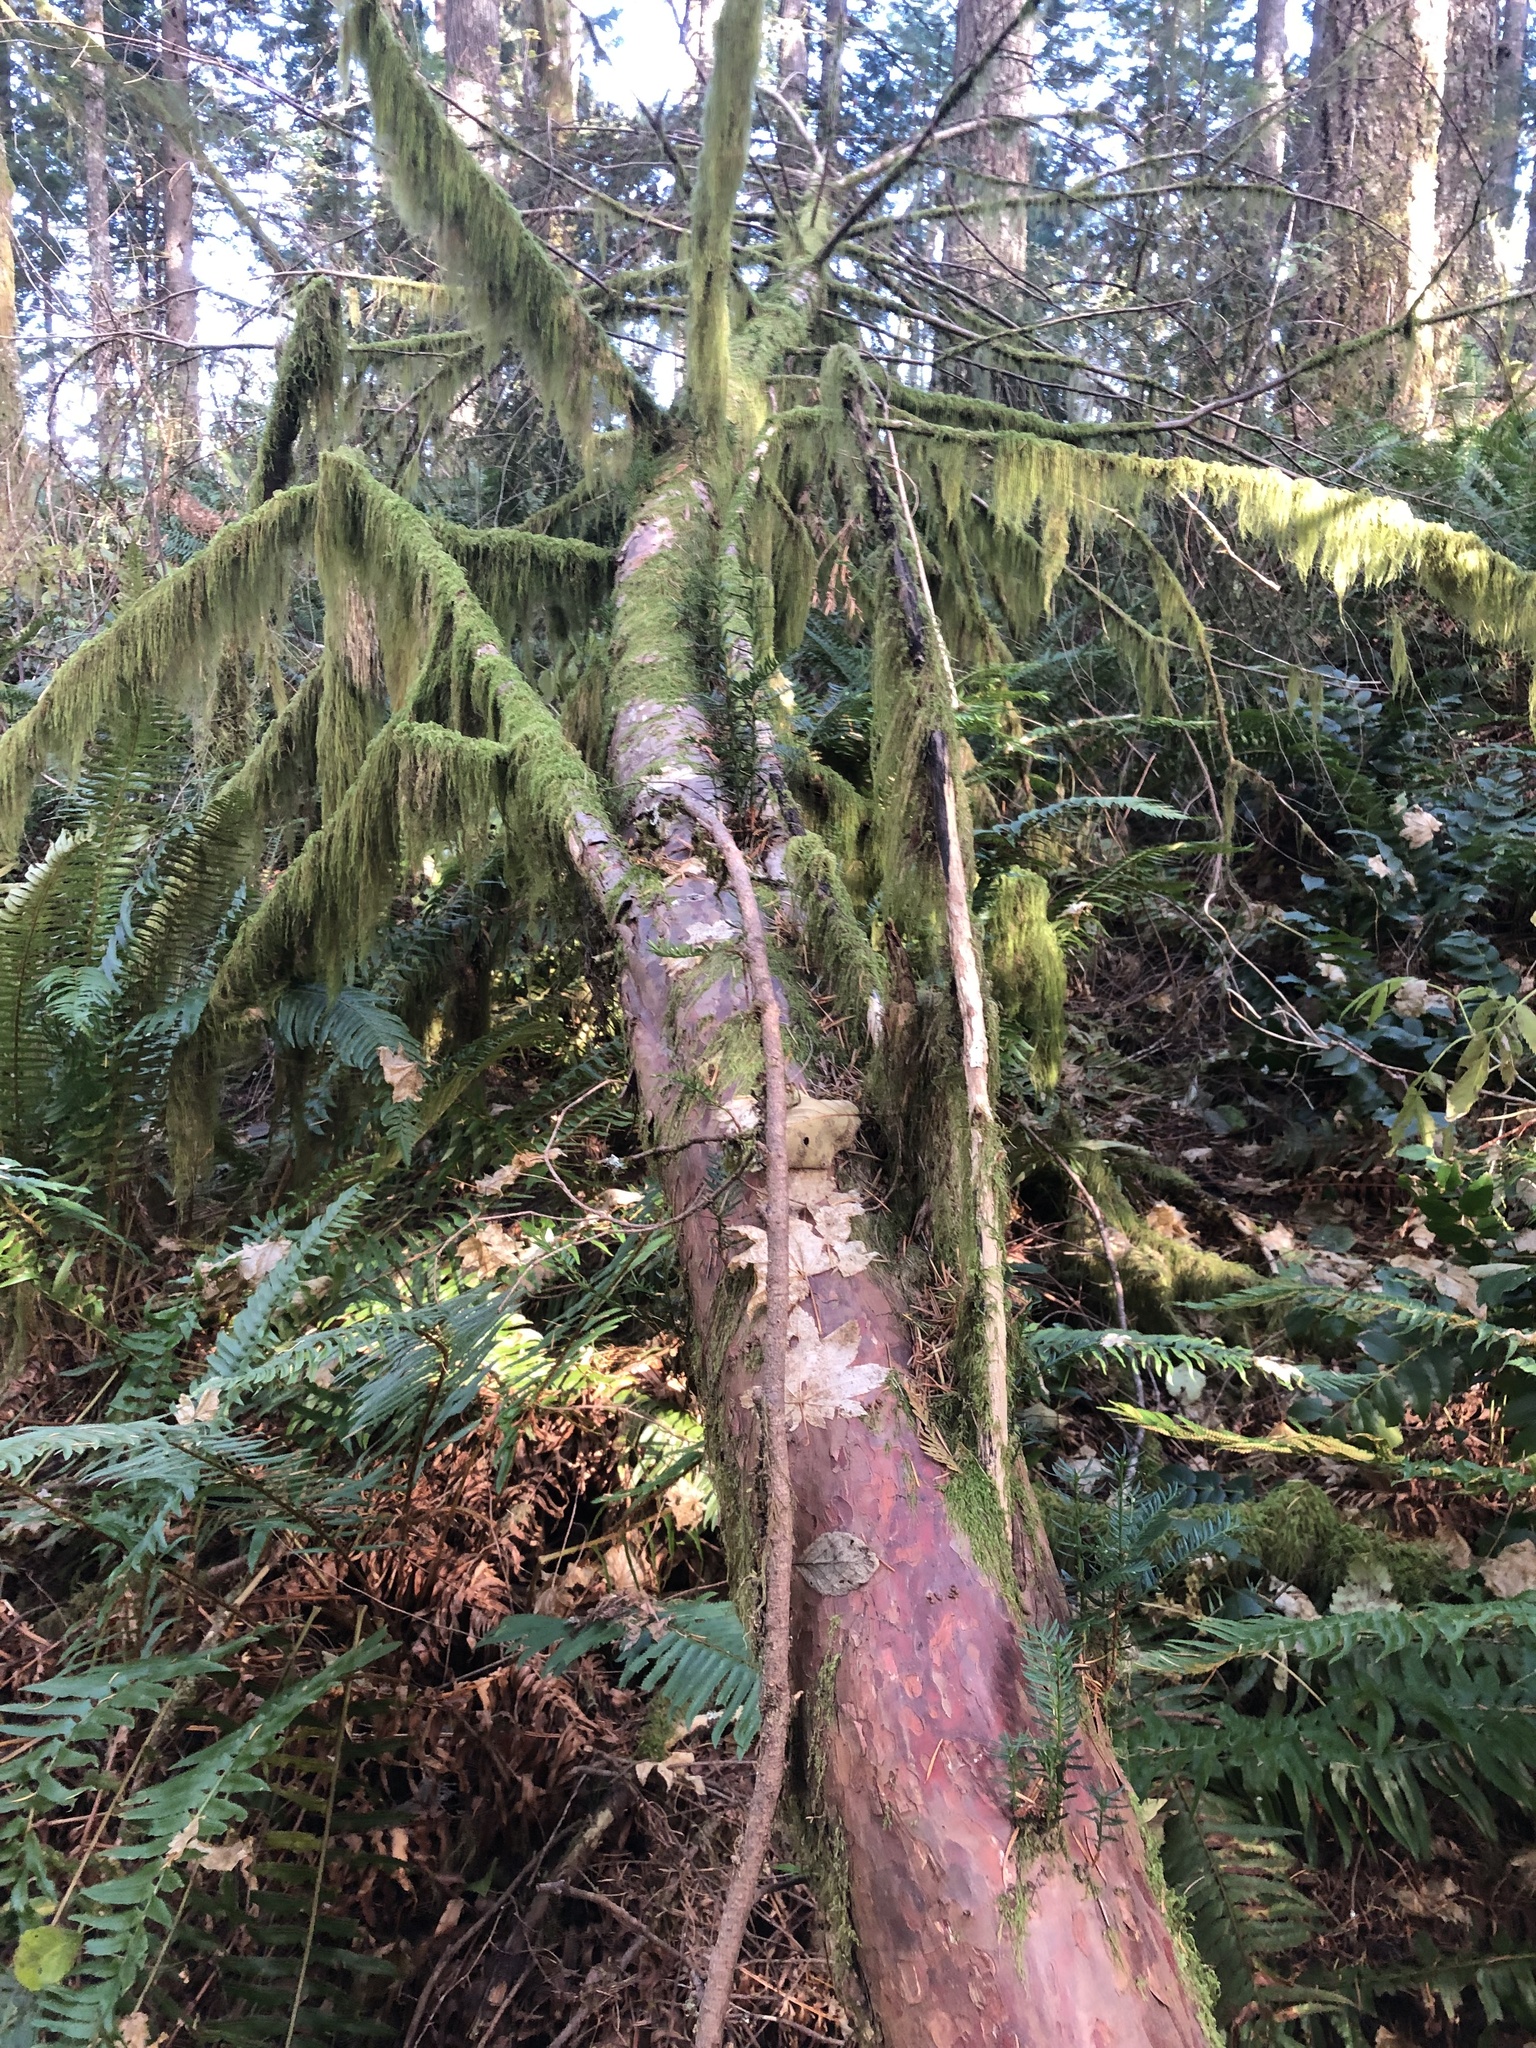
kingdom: Plantae
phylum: Tracheophyta
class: Pinopsida
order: Pinales
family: Taxaceae
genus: Taxus
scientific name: Taxus brevifolia
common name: Pacific yew
